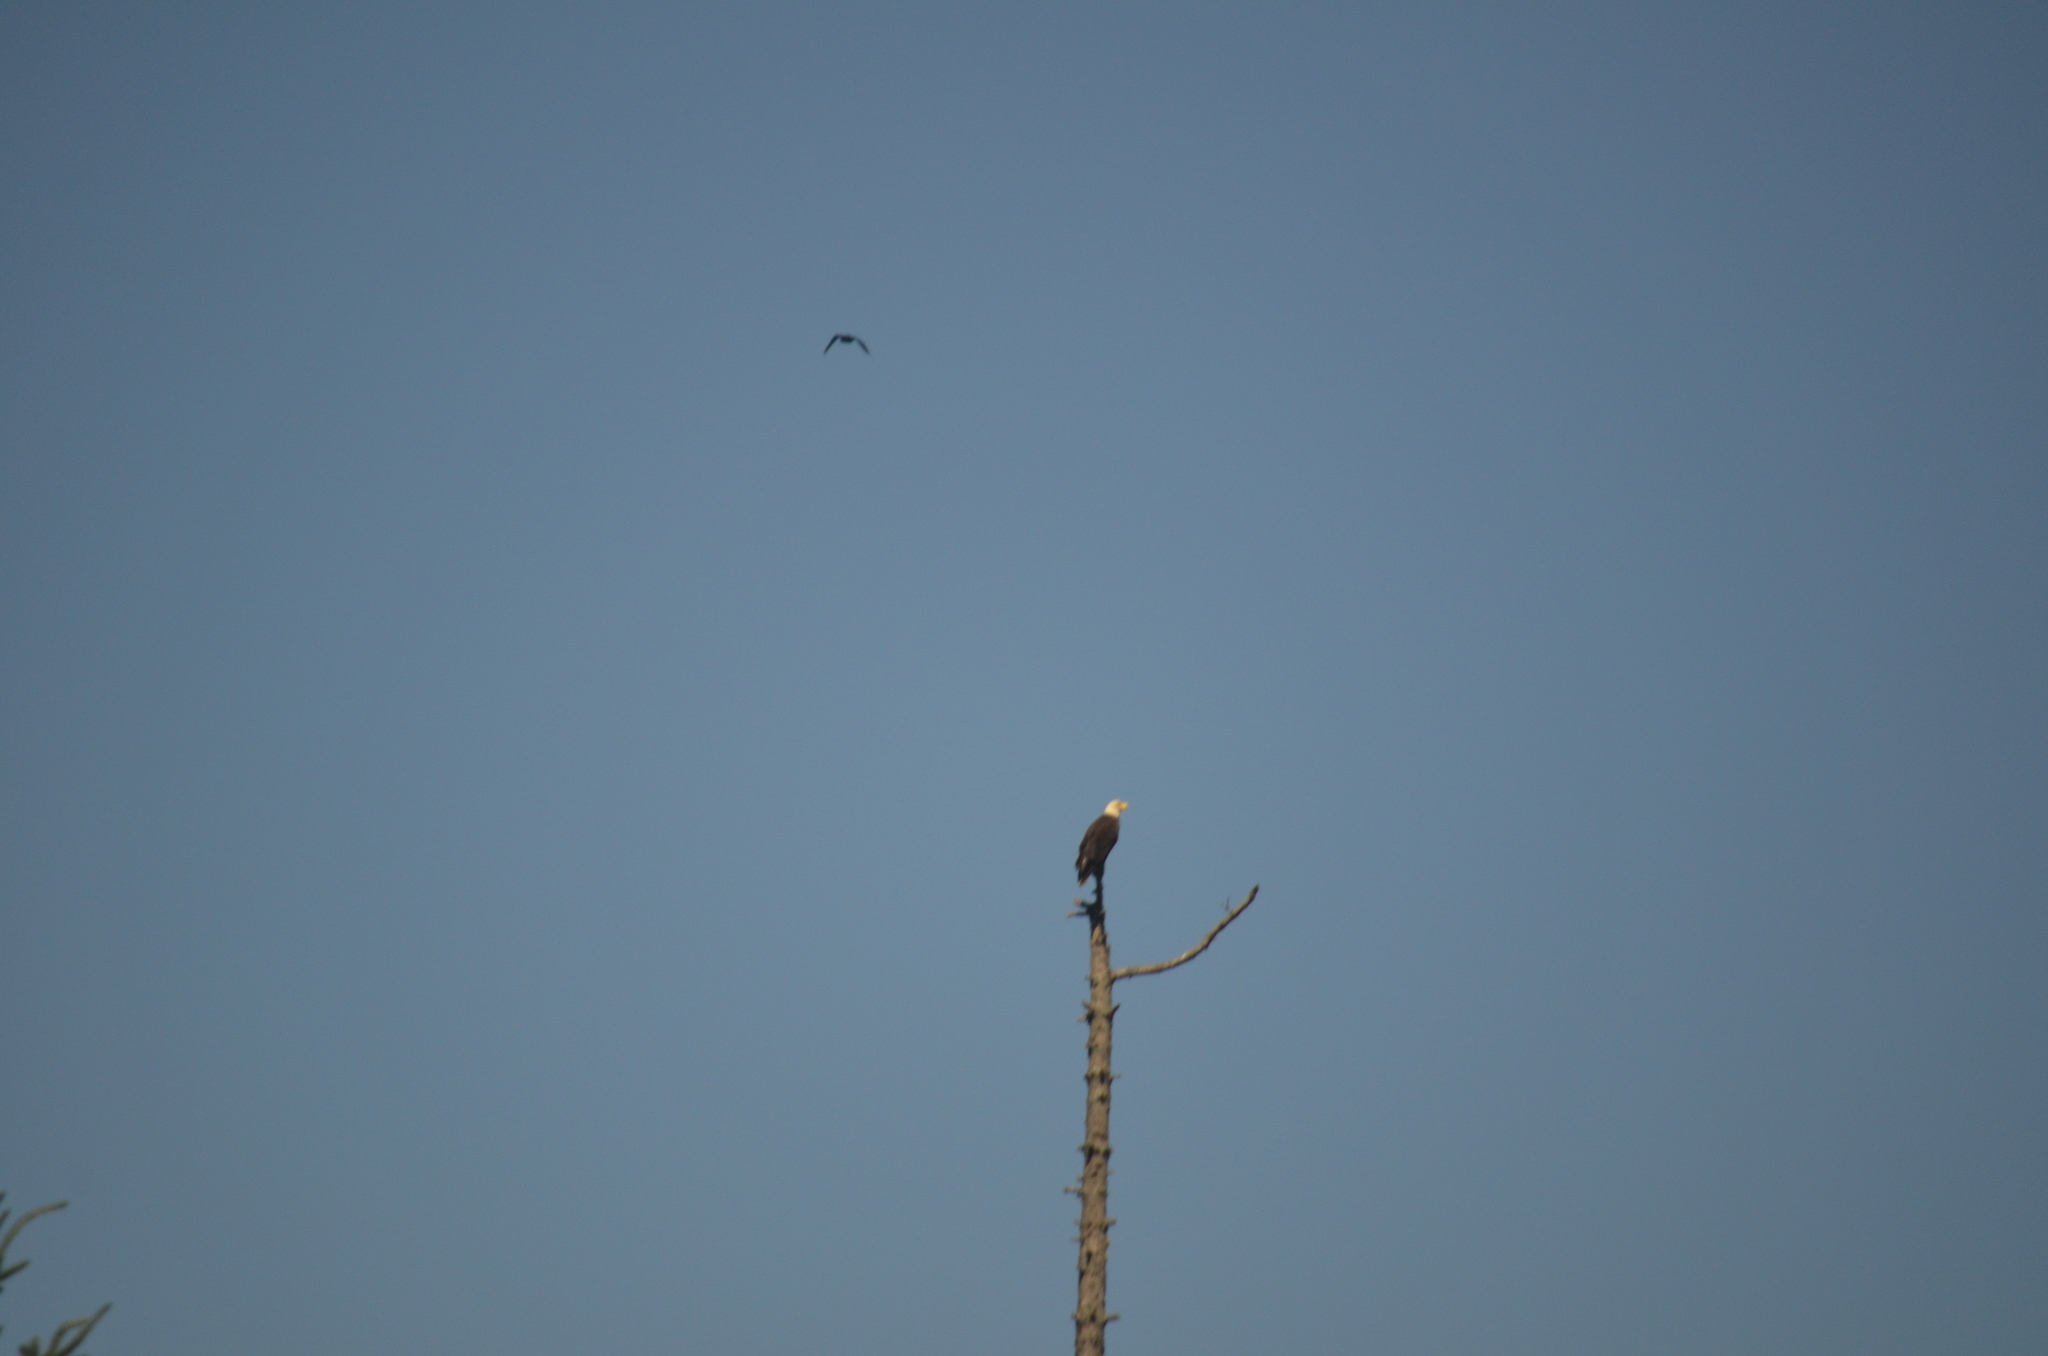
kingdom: Animalia
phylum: Chordata
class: Aves
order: Accipitriformes
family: Accipitridae
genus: Haliaeetus
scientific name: Haliaeetus leucocephalus
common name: Bald eagle
